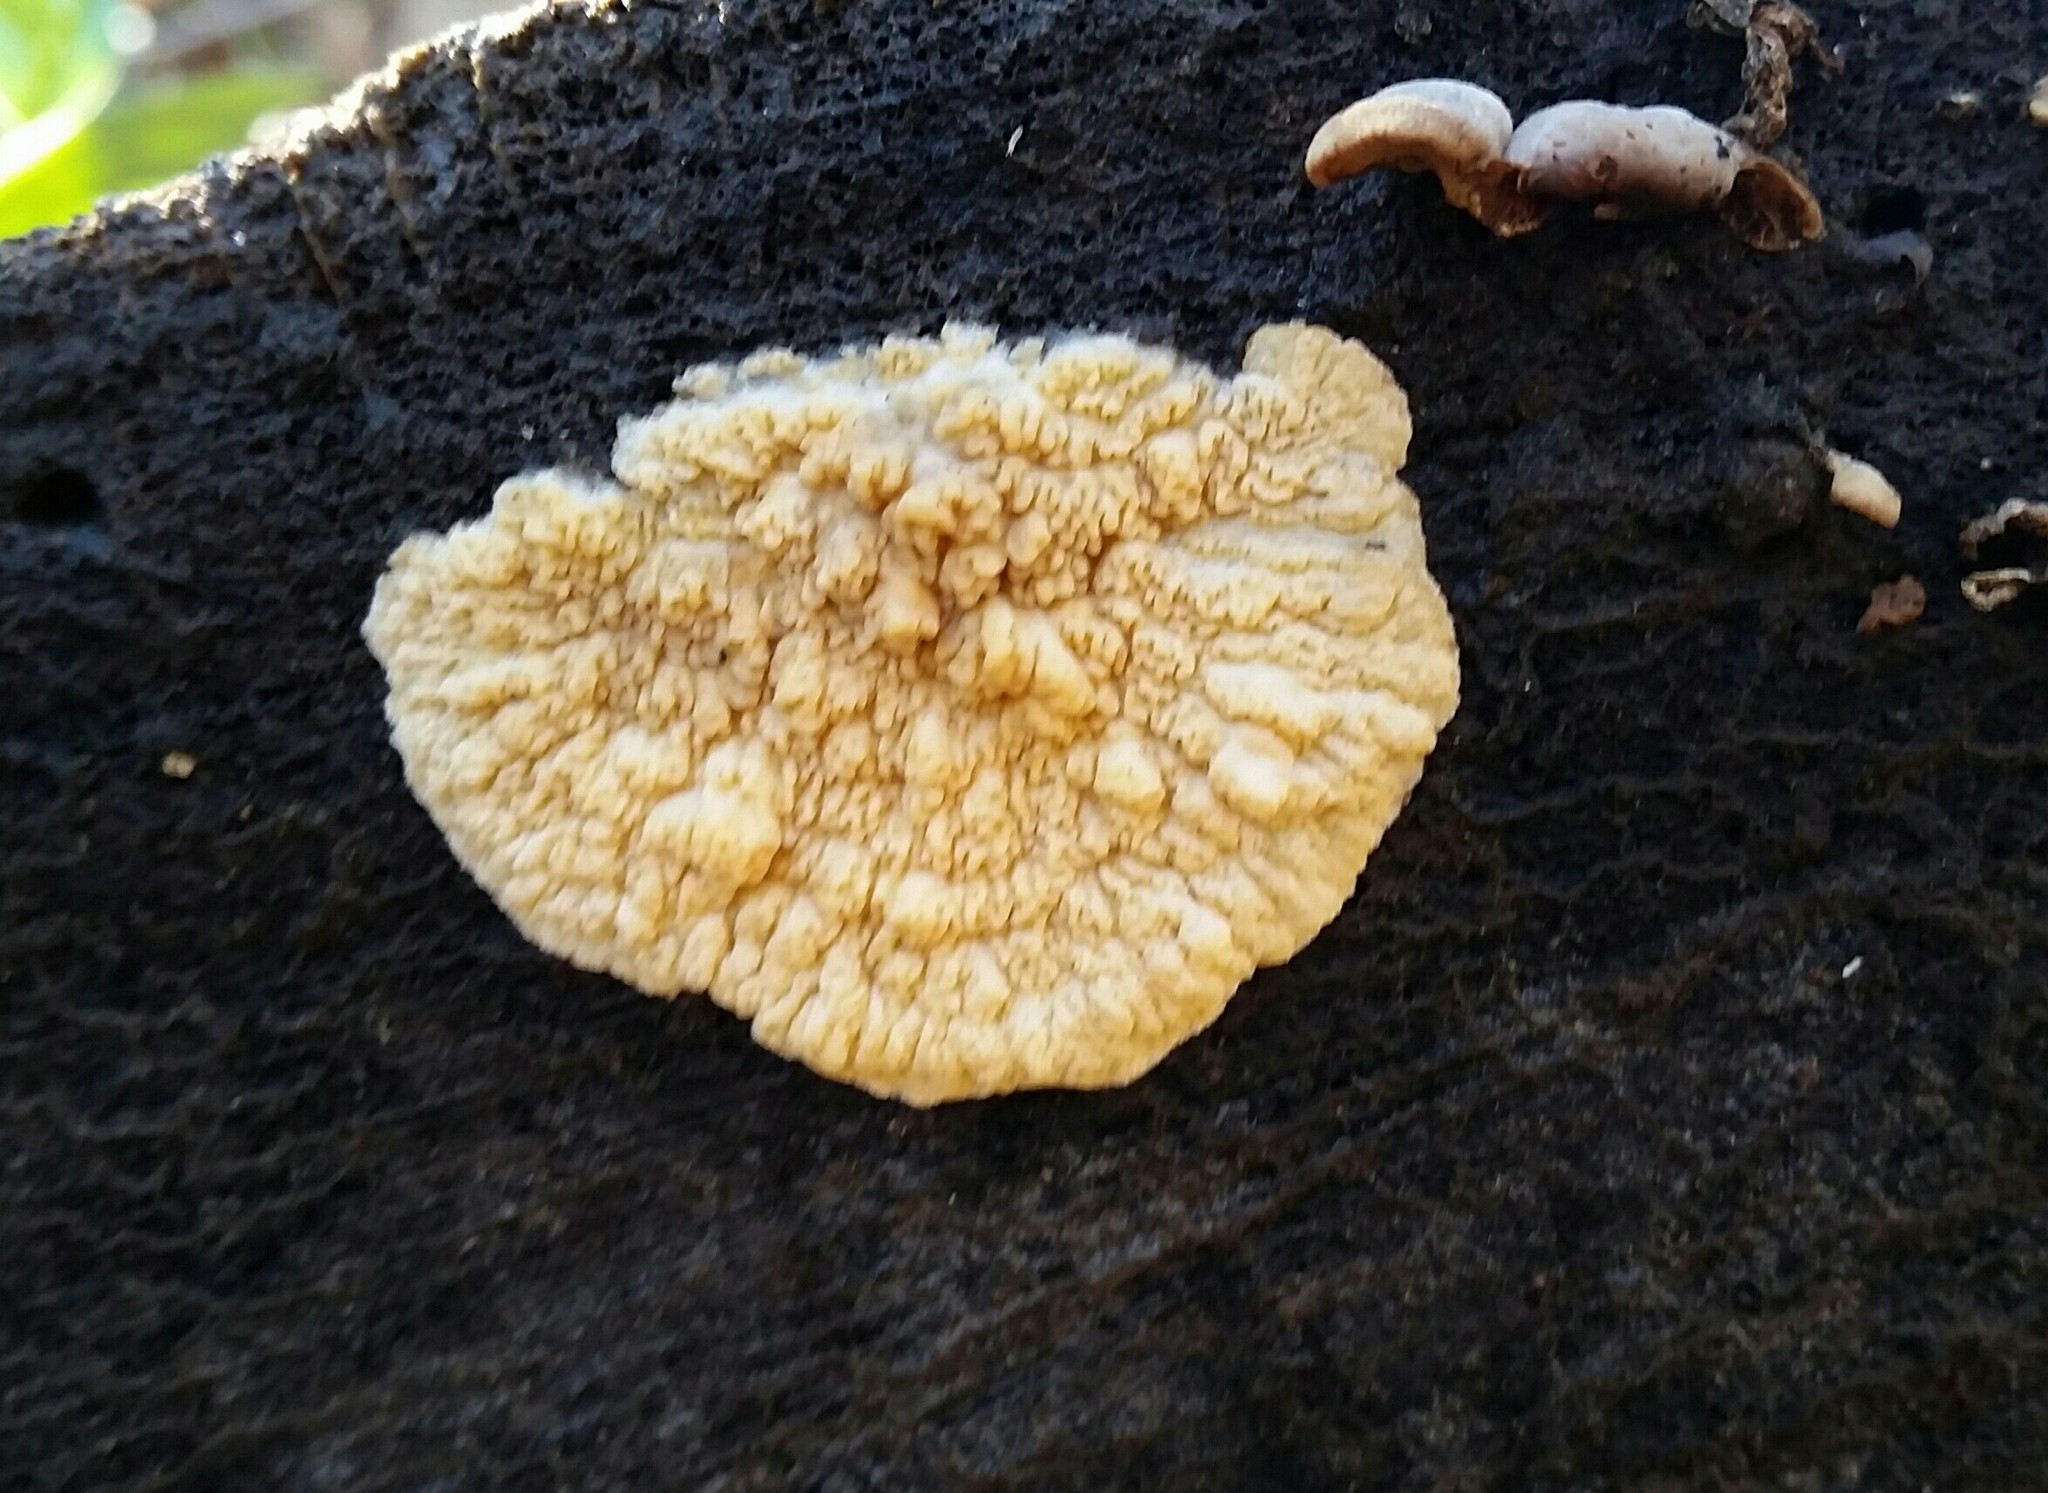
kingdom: Fungi
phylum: Basidiomycota
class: Agaricomycetes
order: Polyporales
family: Meruliaceae
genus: Phlebia
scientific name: Phlebia radiata
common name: Wrinkled crust
